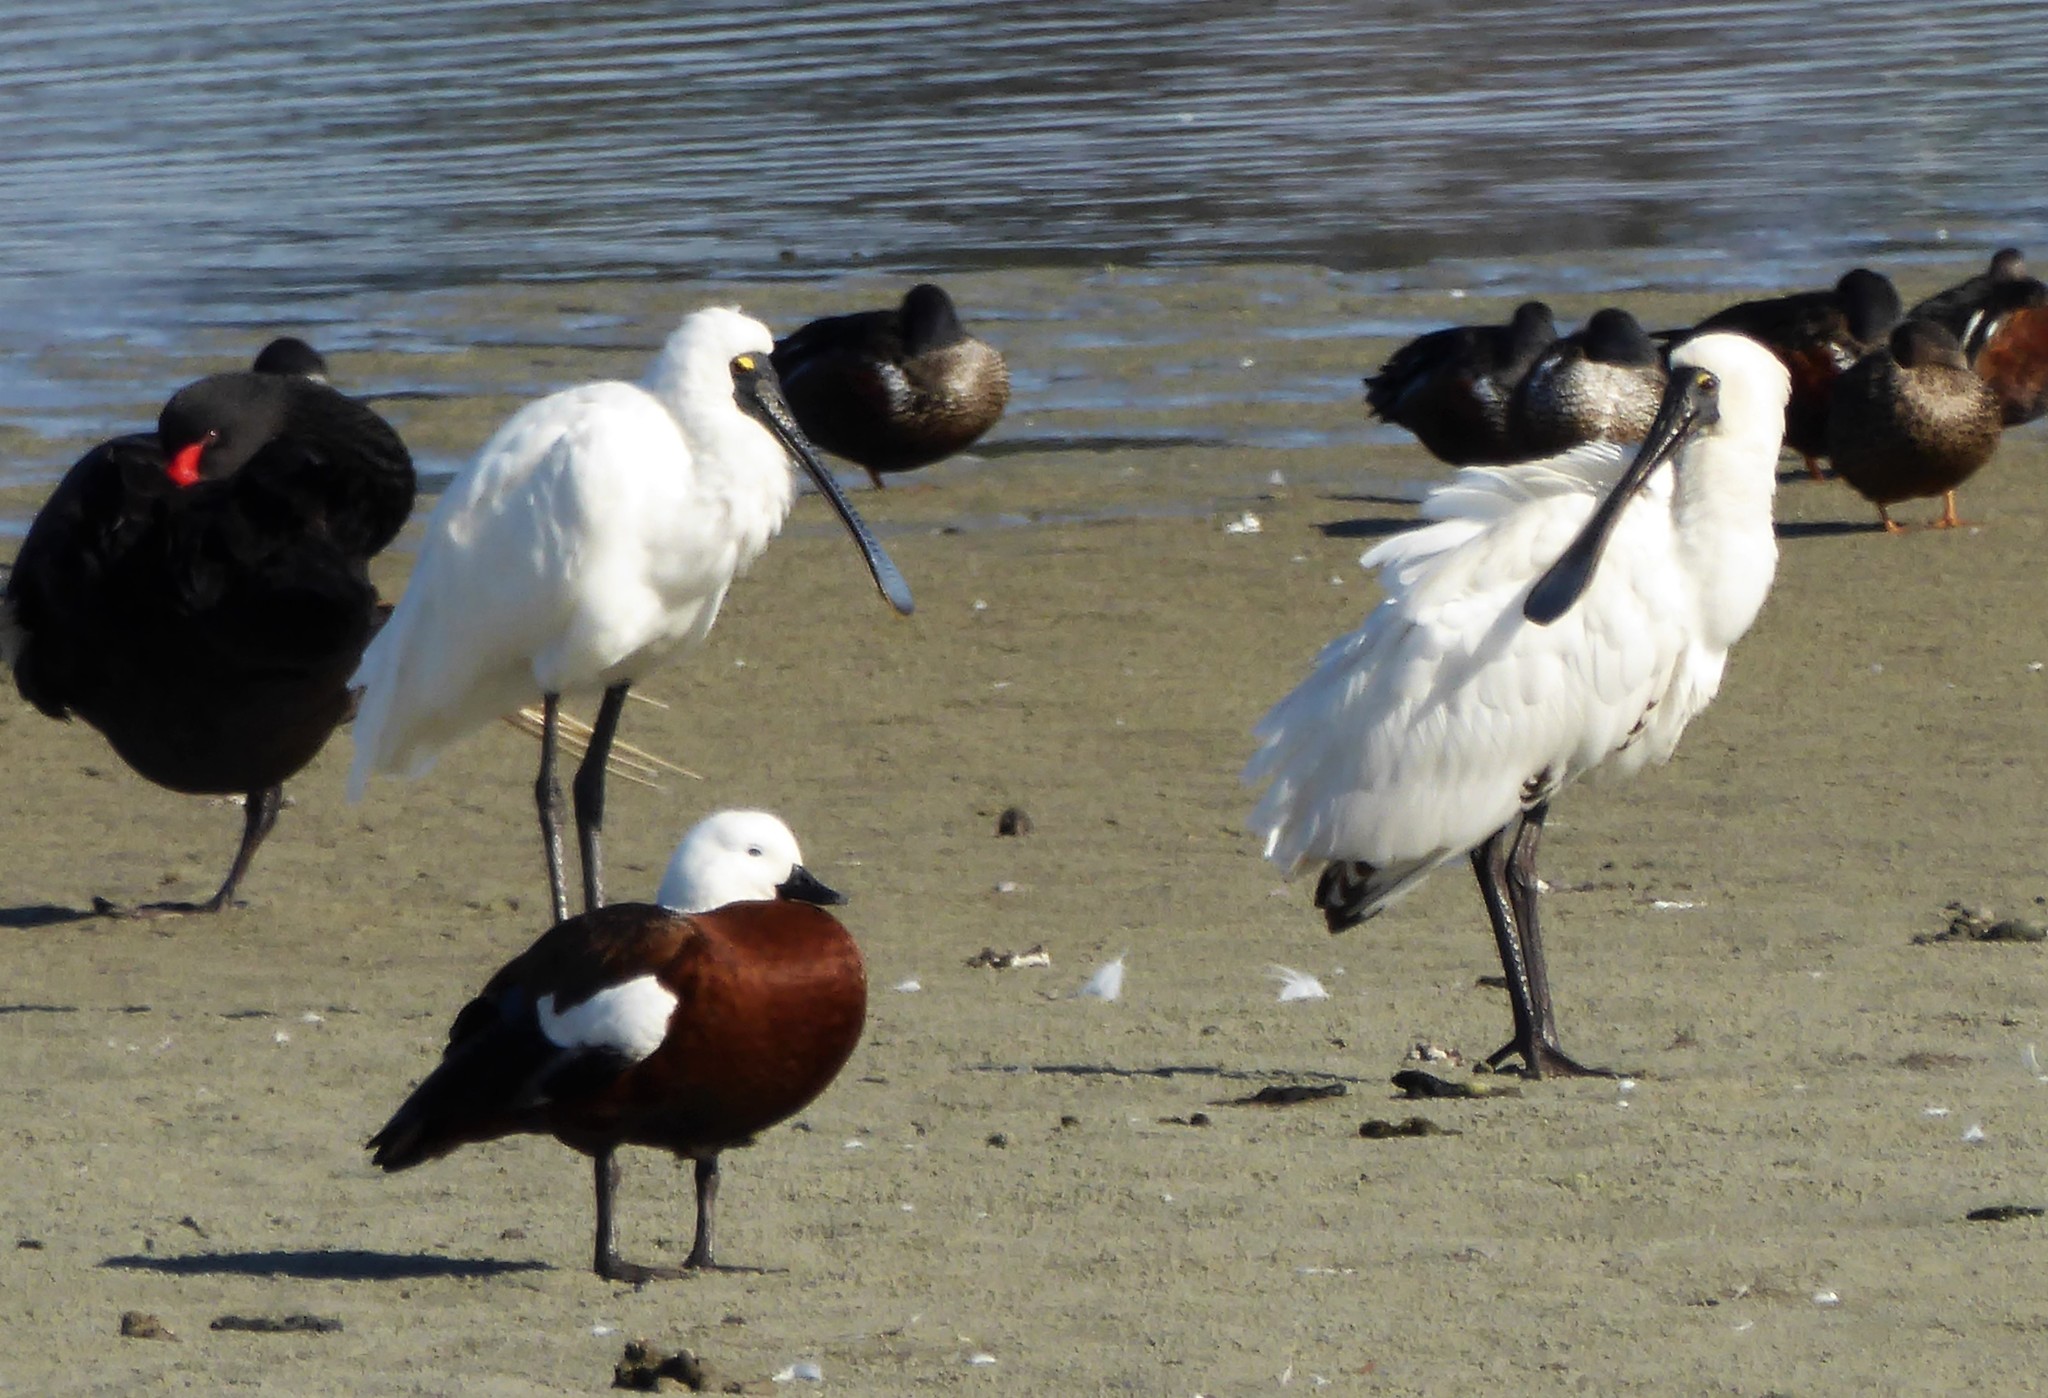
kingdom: Animalia
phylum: Chordata
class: Aves
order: Pelecaniformes
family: Threskiornithidae
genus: Platalea
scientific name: Platalea regia
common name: Royal spoonbill
